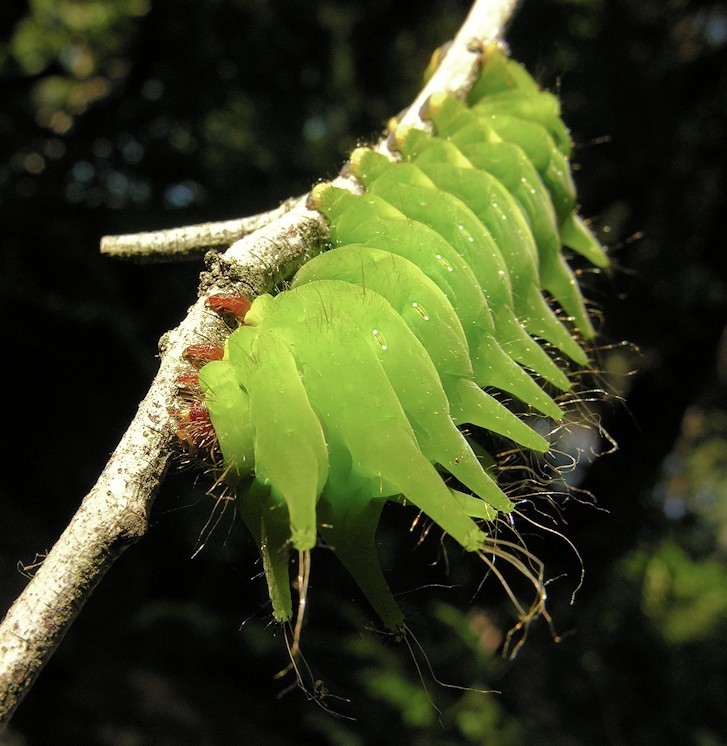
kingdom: Animalia
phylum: Arthropoda
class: Insecta
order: Lepidoptera
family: Saturniidae
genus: Argema
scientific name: Argema mimosae
